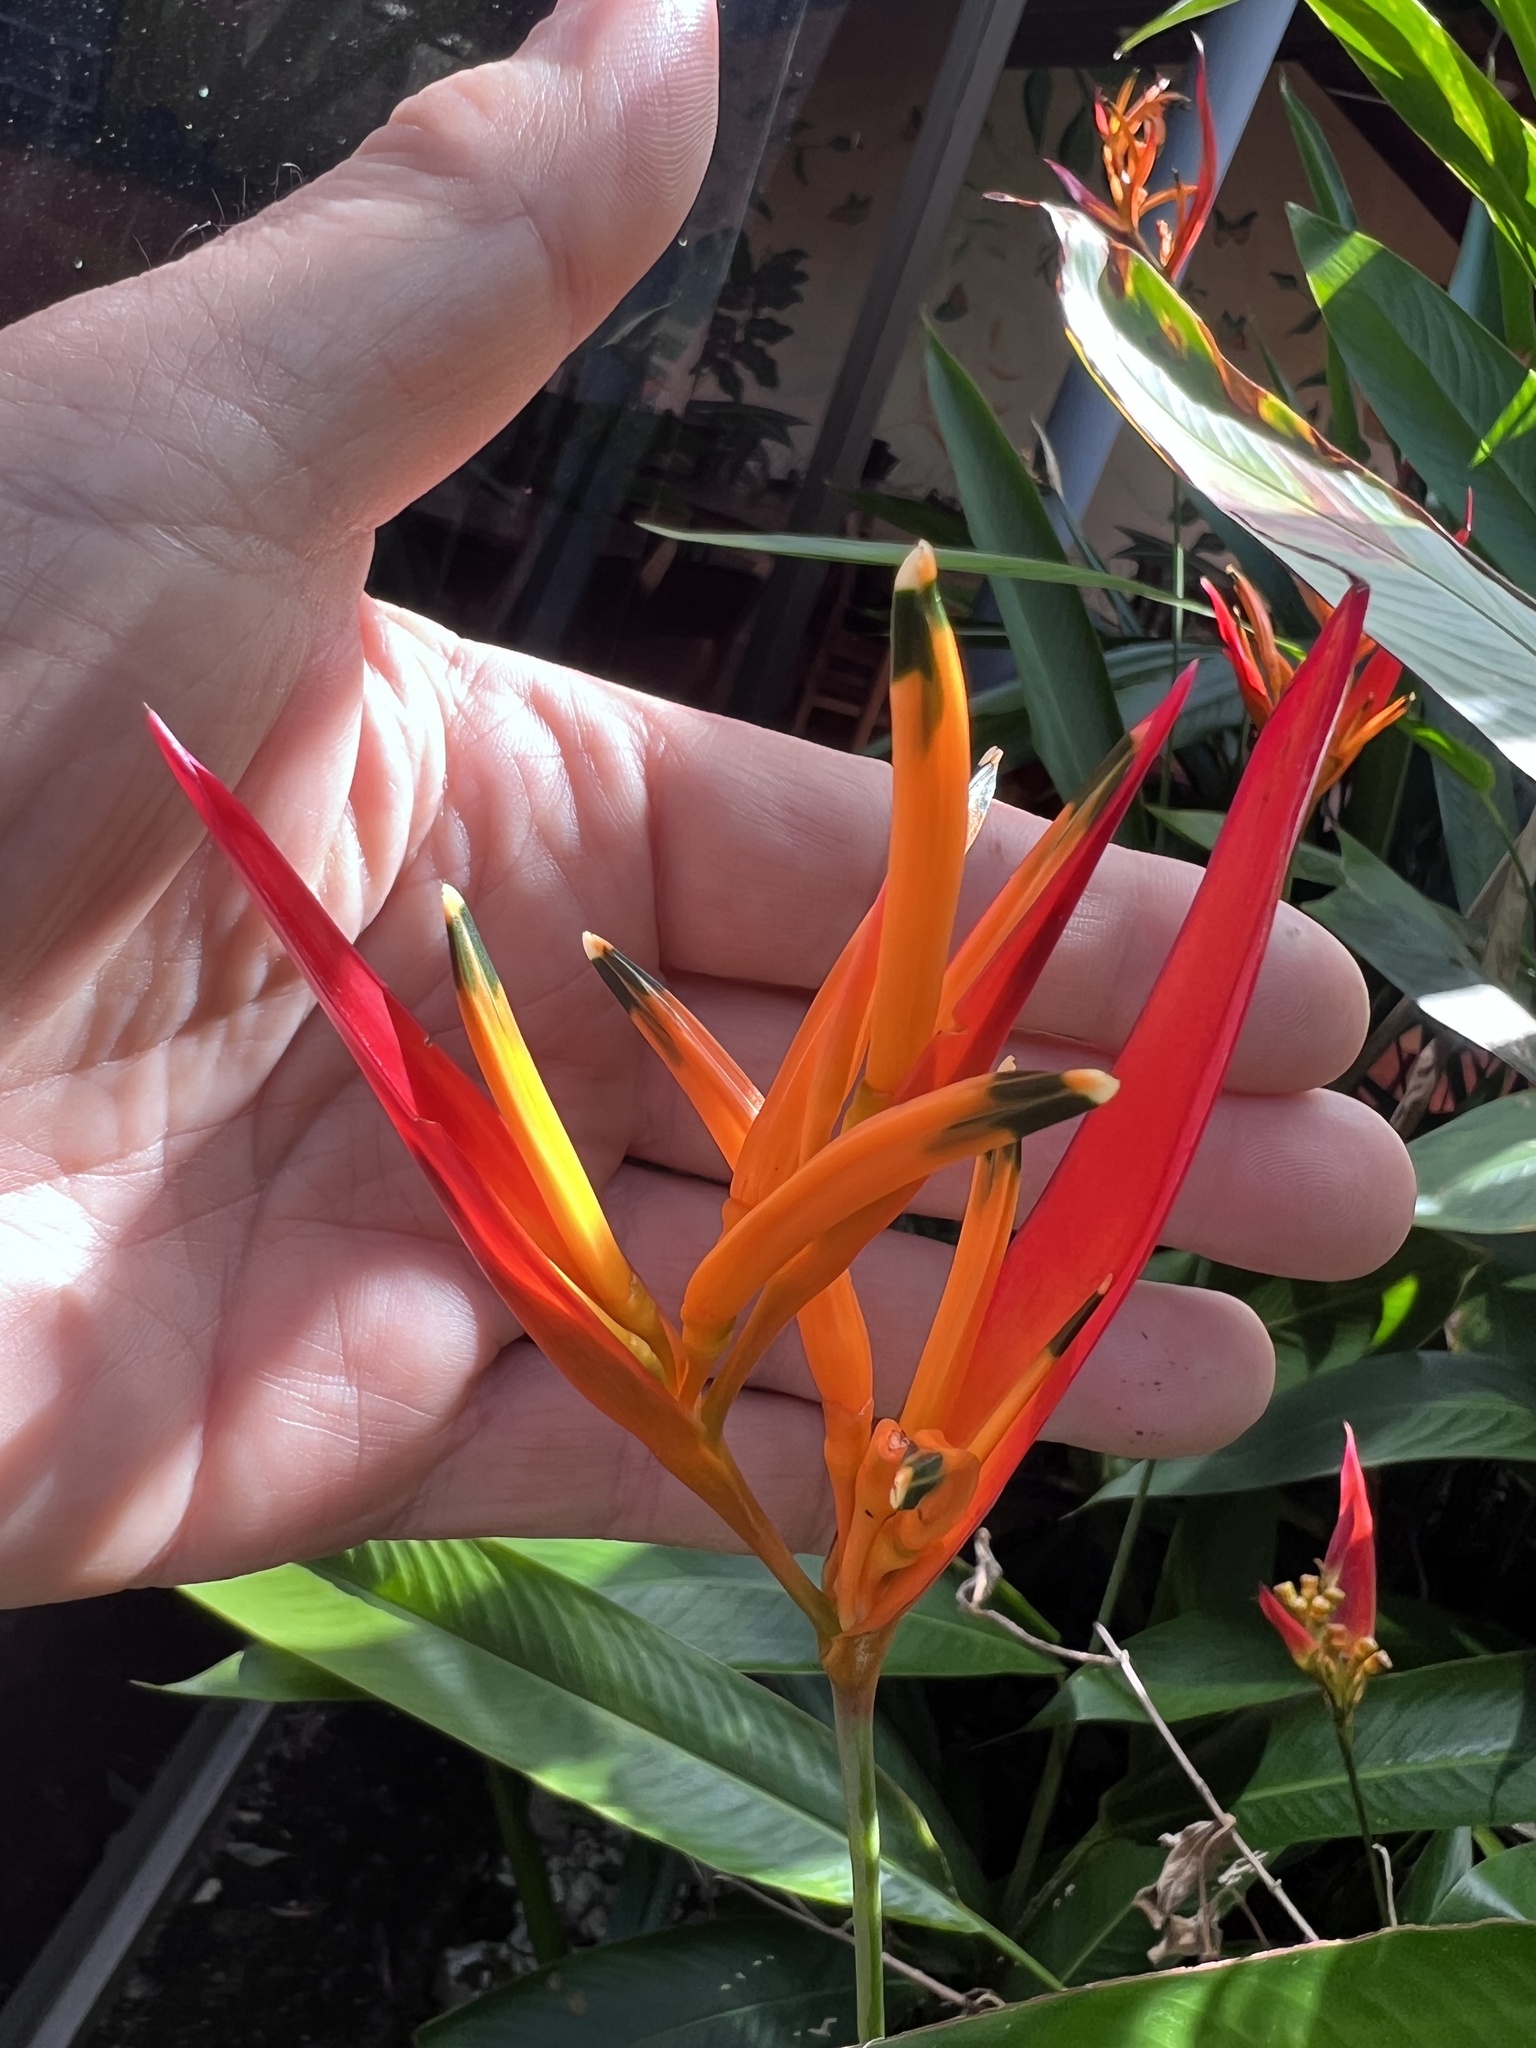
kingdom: Plantae
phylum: Tracheophyta
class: Liliopsida
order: Zingiberales
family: Heliconiaceae
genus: Heliconia
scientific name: Heliconia psittacorum
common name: Parrot's-flower
